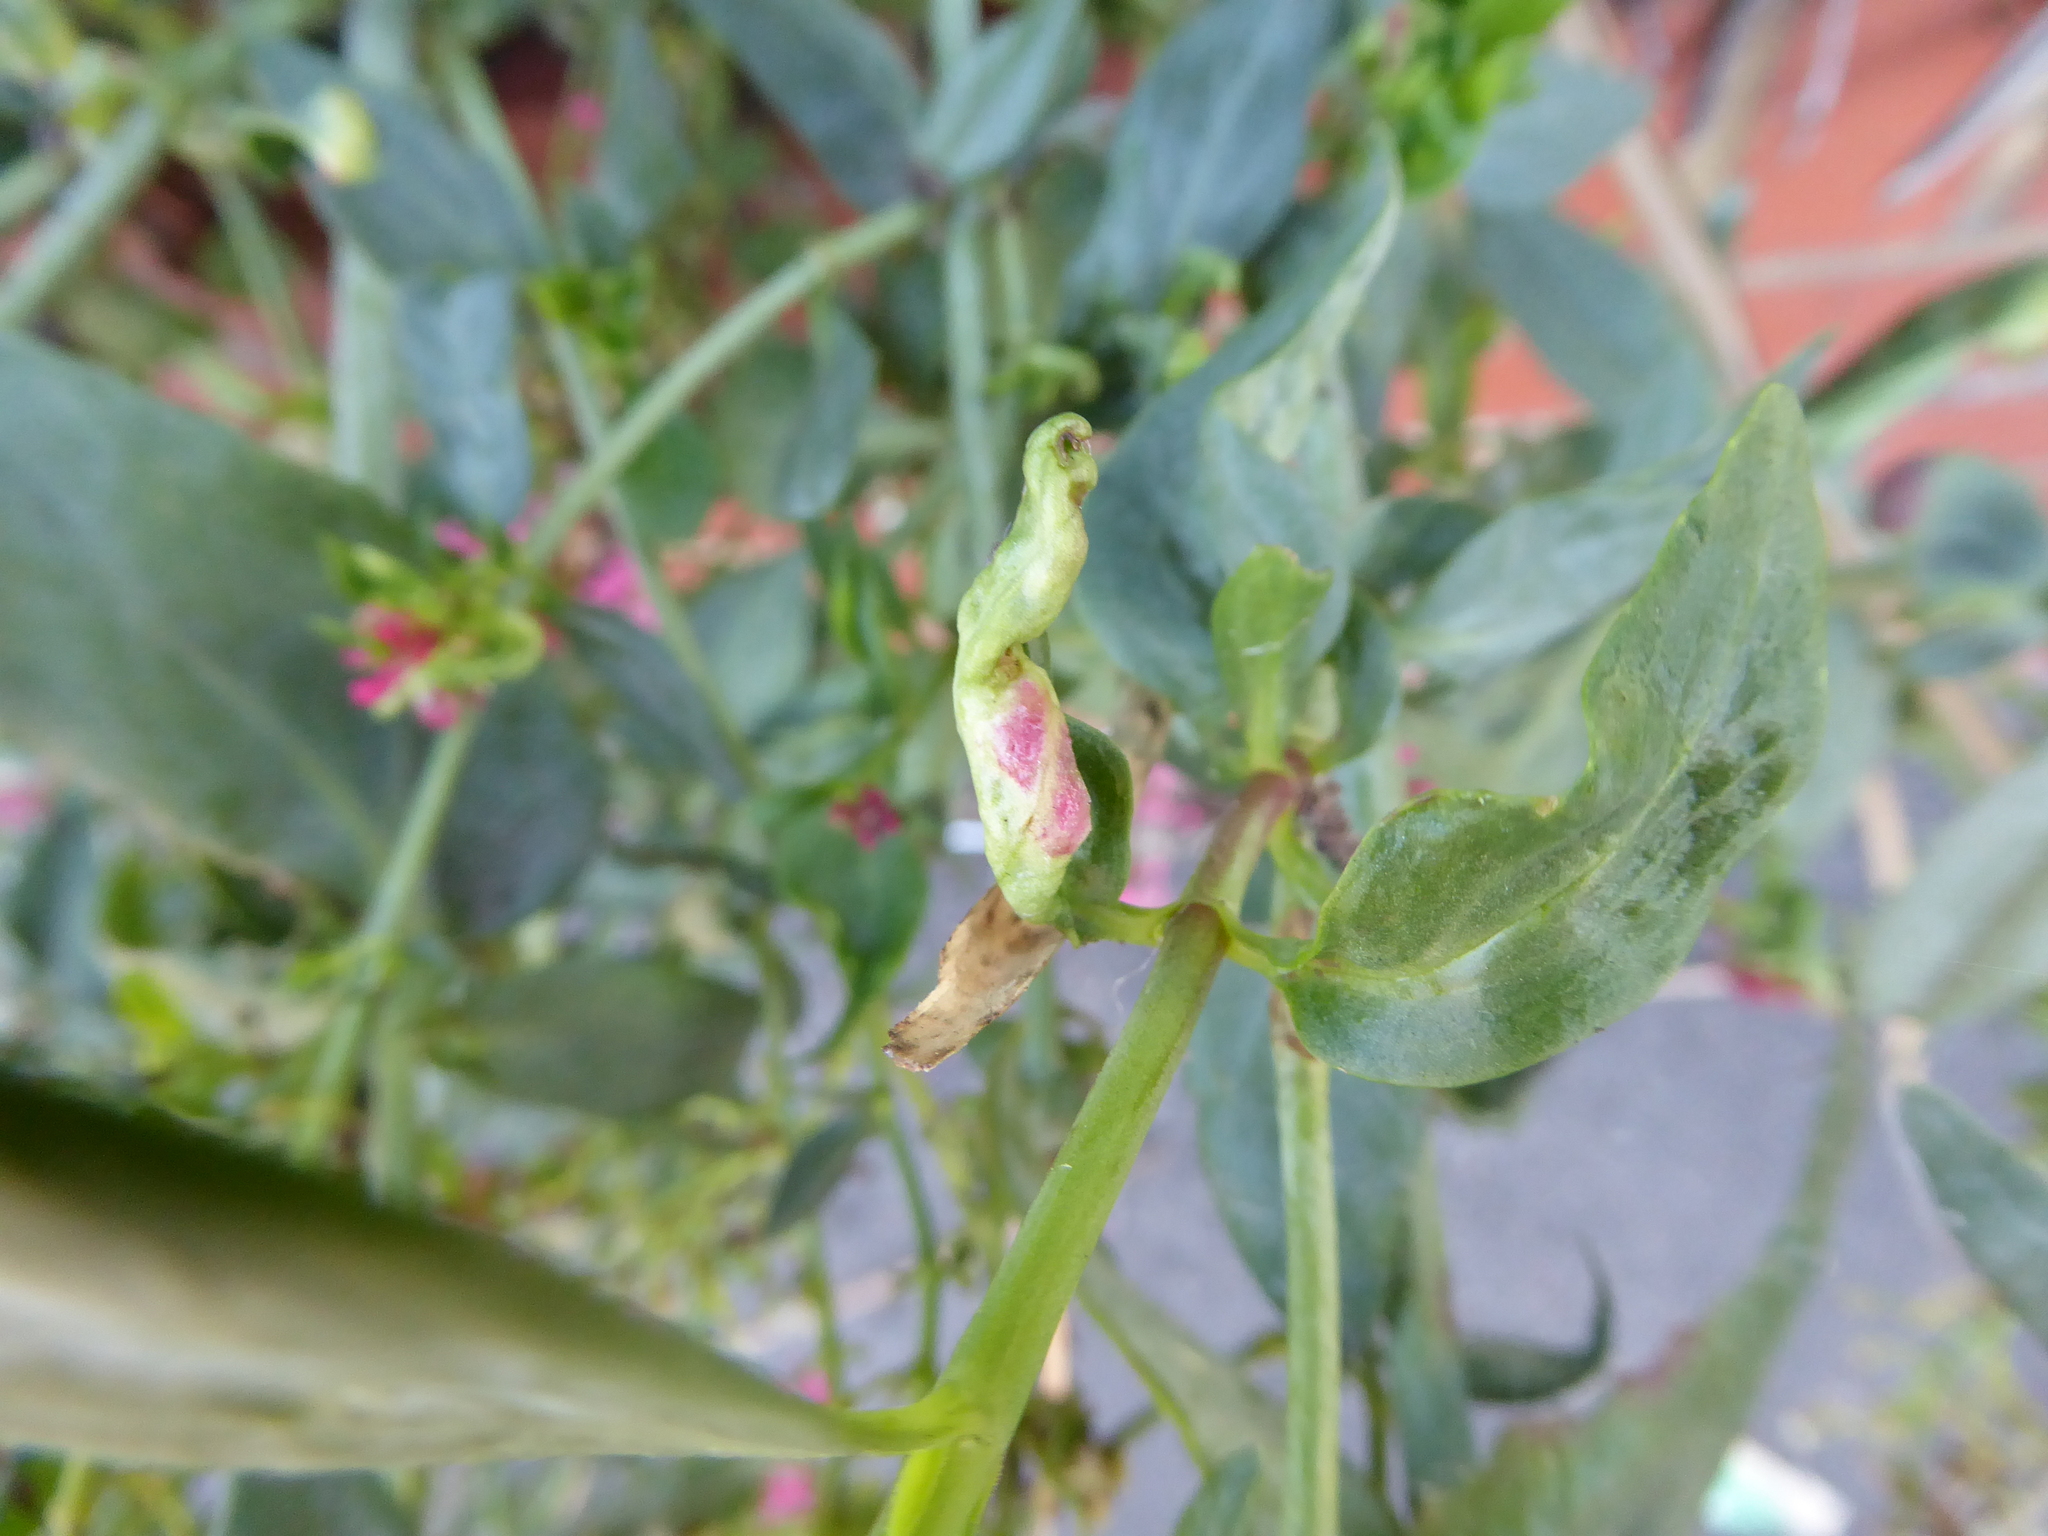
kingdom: Animalia
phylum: Arthropoda
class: Insecta
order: Hemiptera
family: Triozidae
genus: Trioza
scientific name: Trioza centranthi
